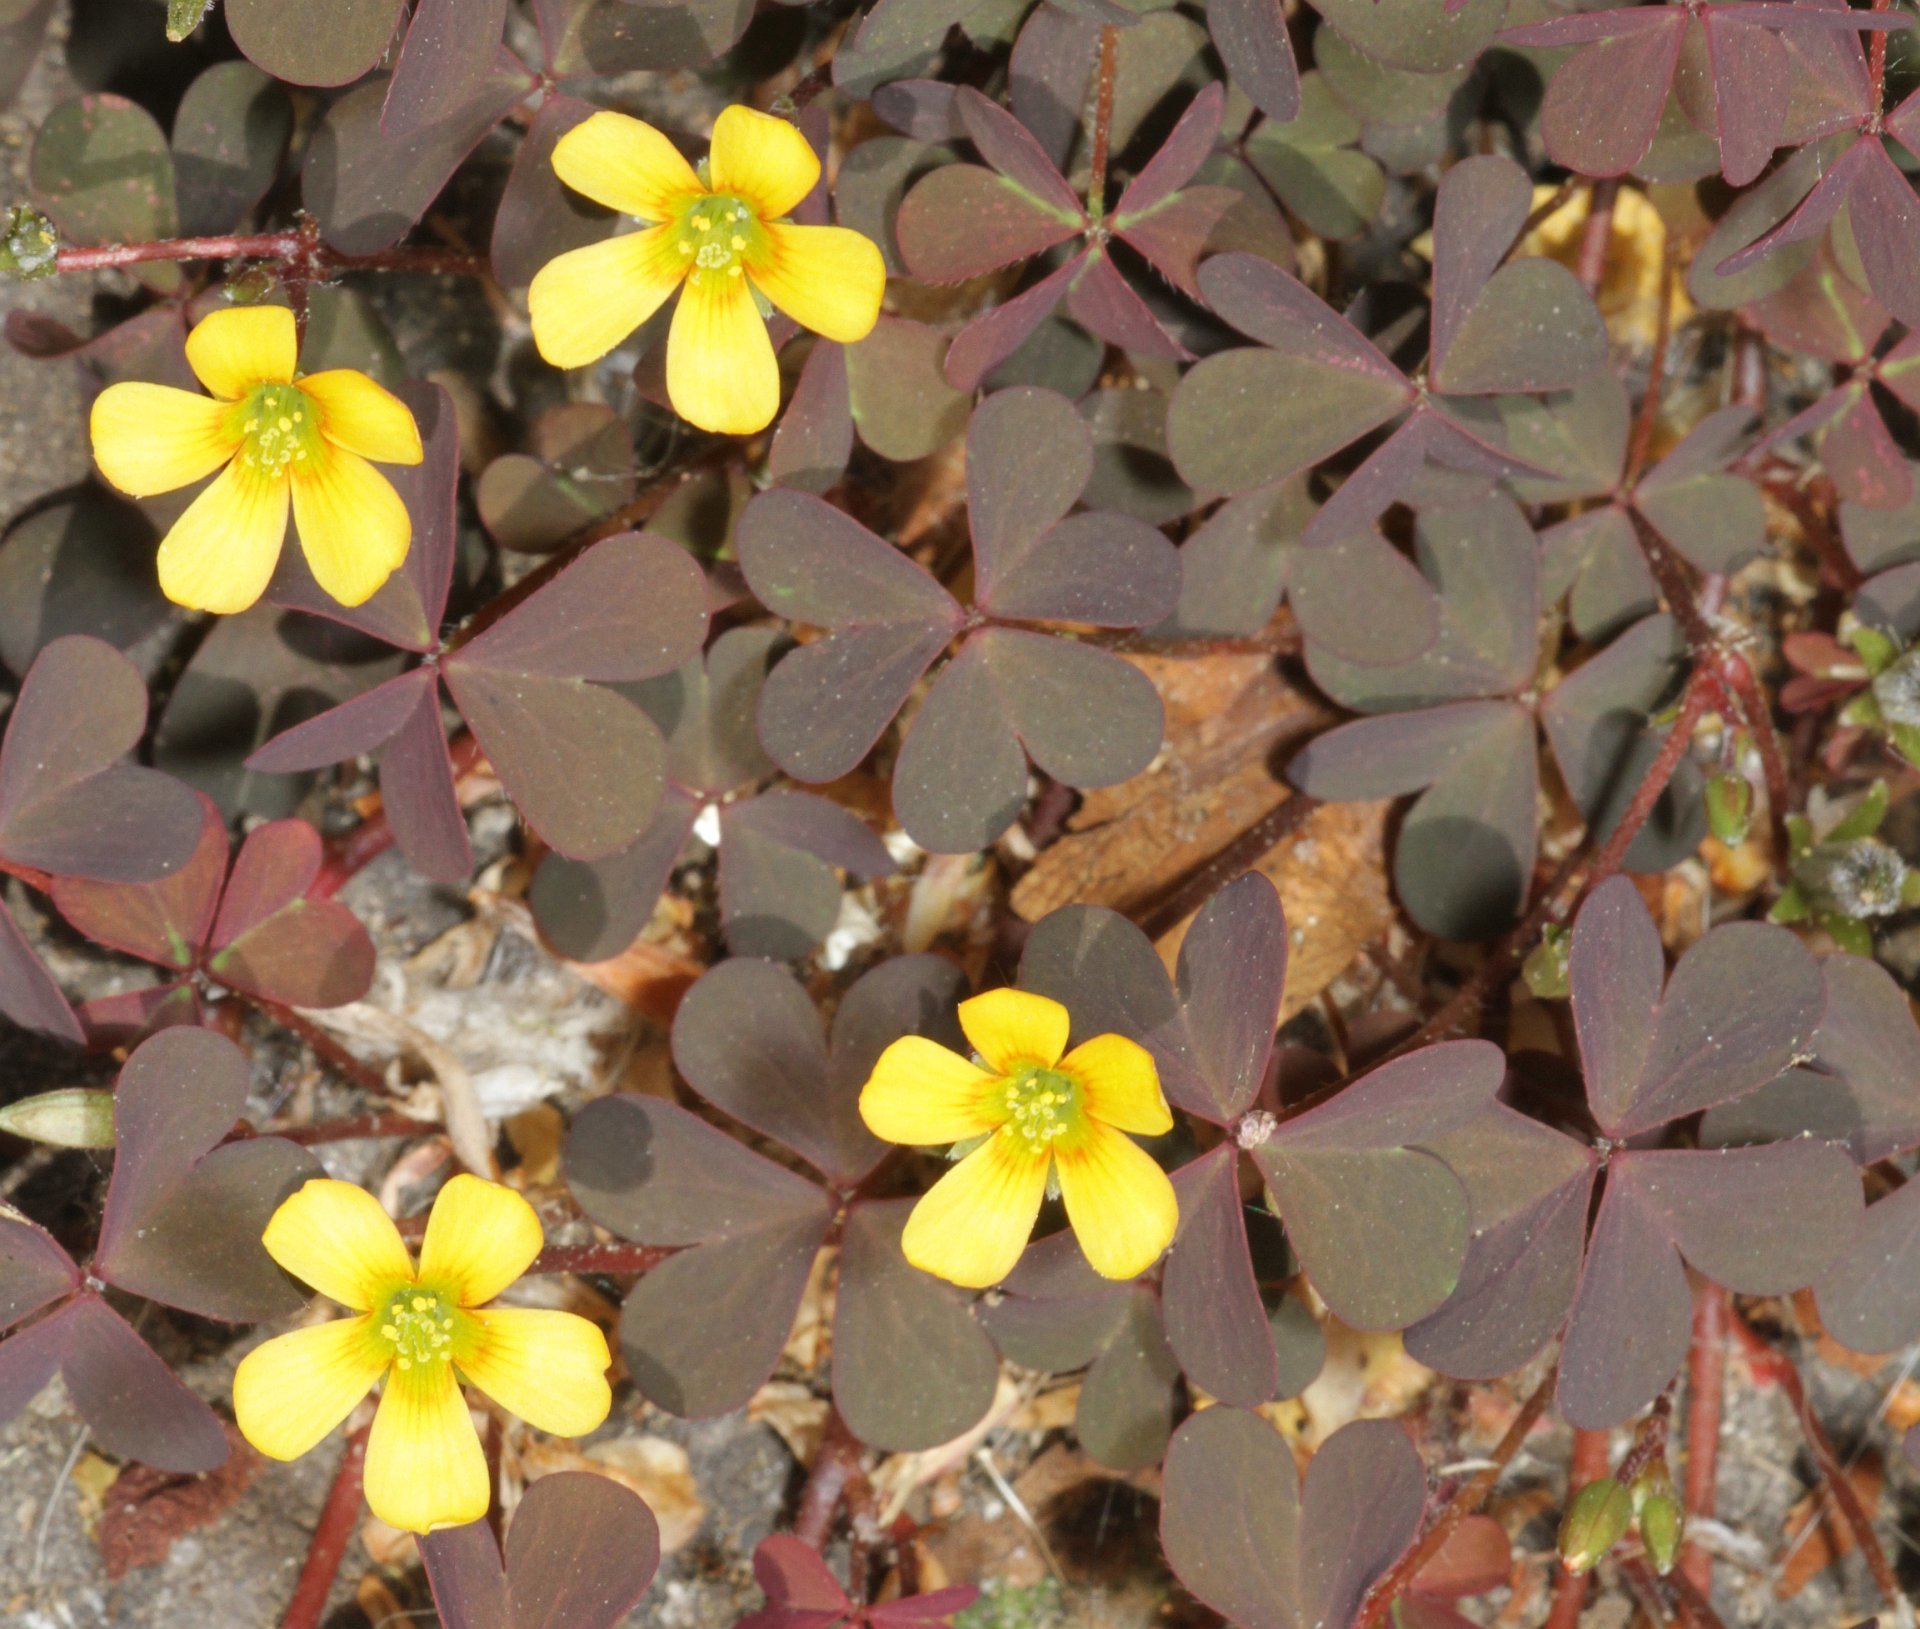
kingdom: Plantae
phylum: Tracheophyta
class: Magnoliopsida
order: Oxalidales
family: Oxalidaceae
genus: Oxalis
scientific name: Oxalis corniculata
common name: Procumbent yellow-sorrel
